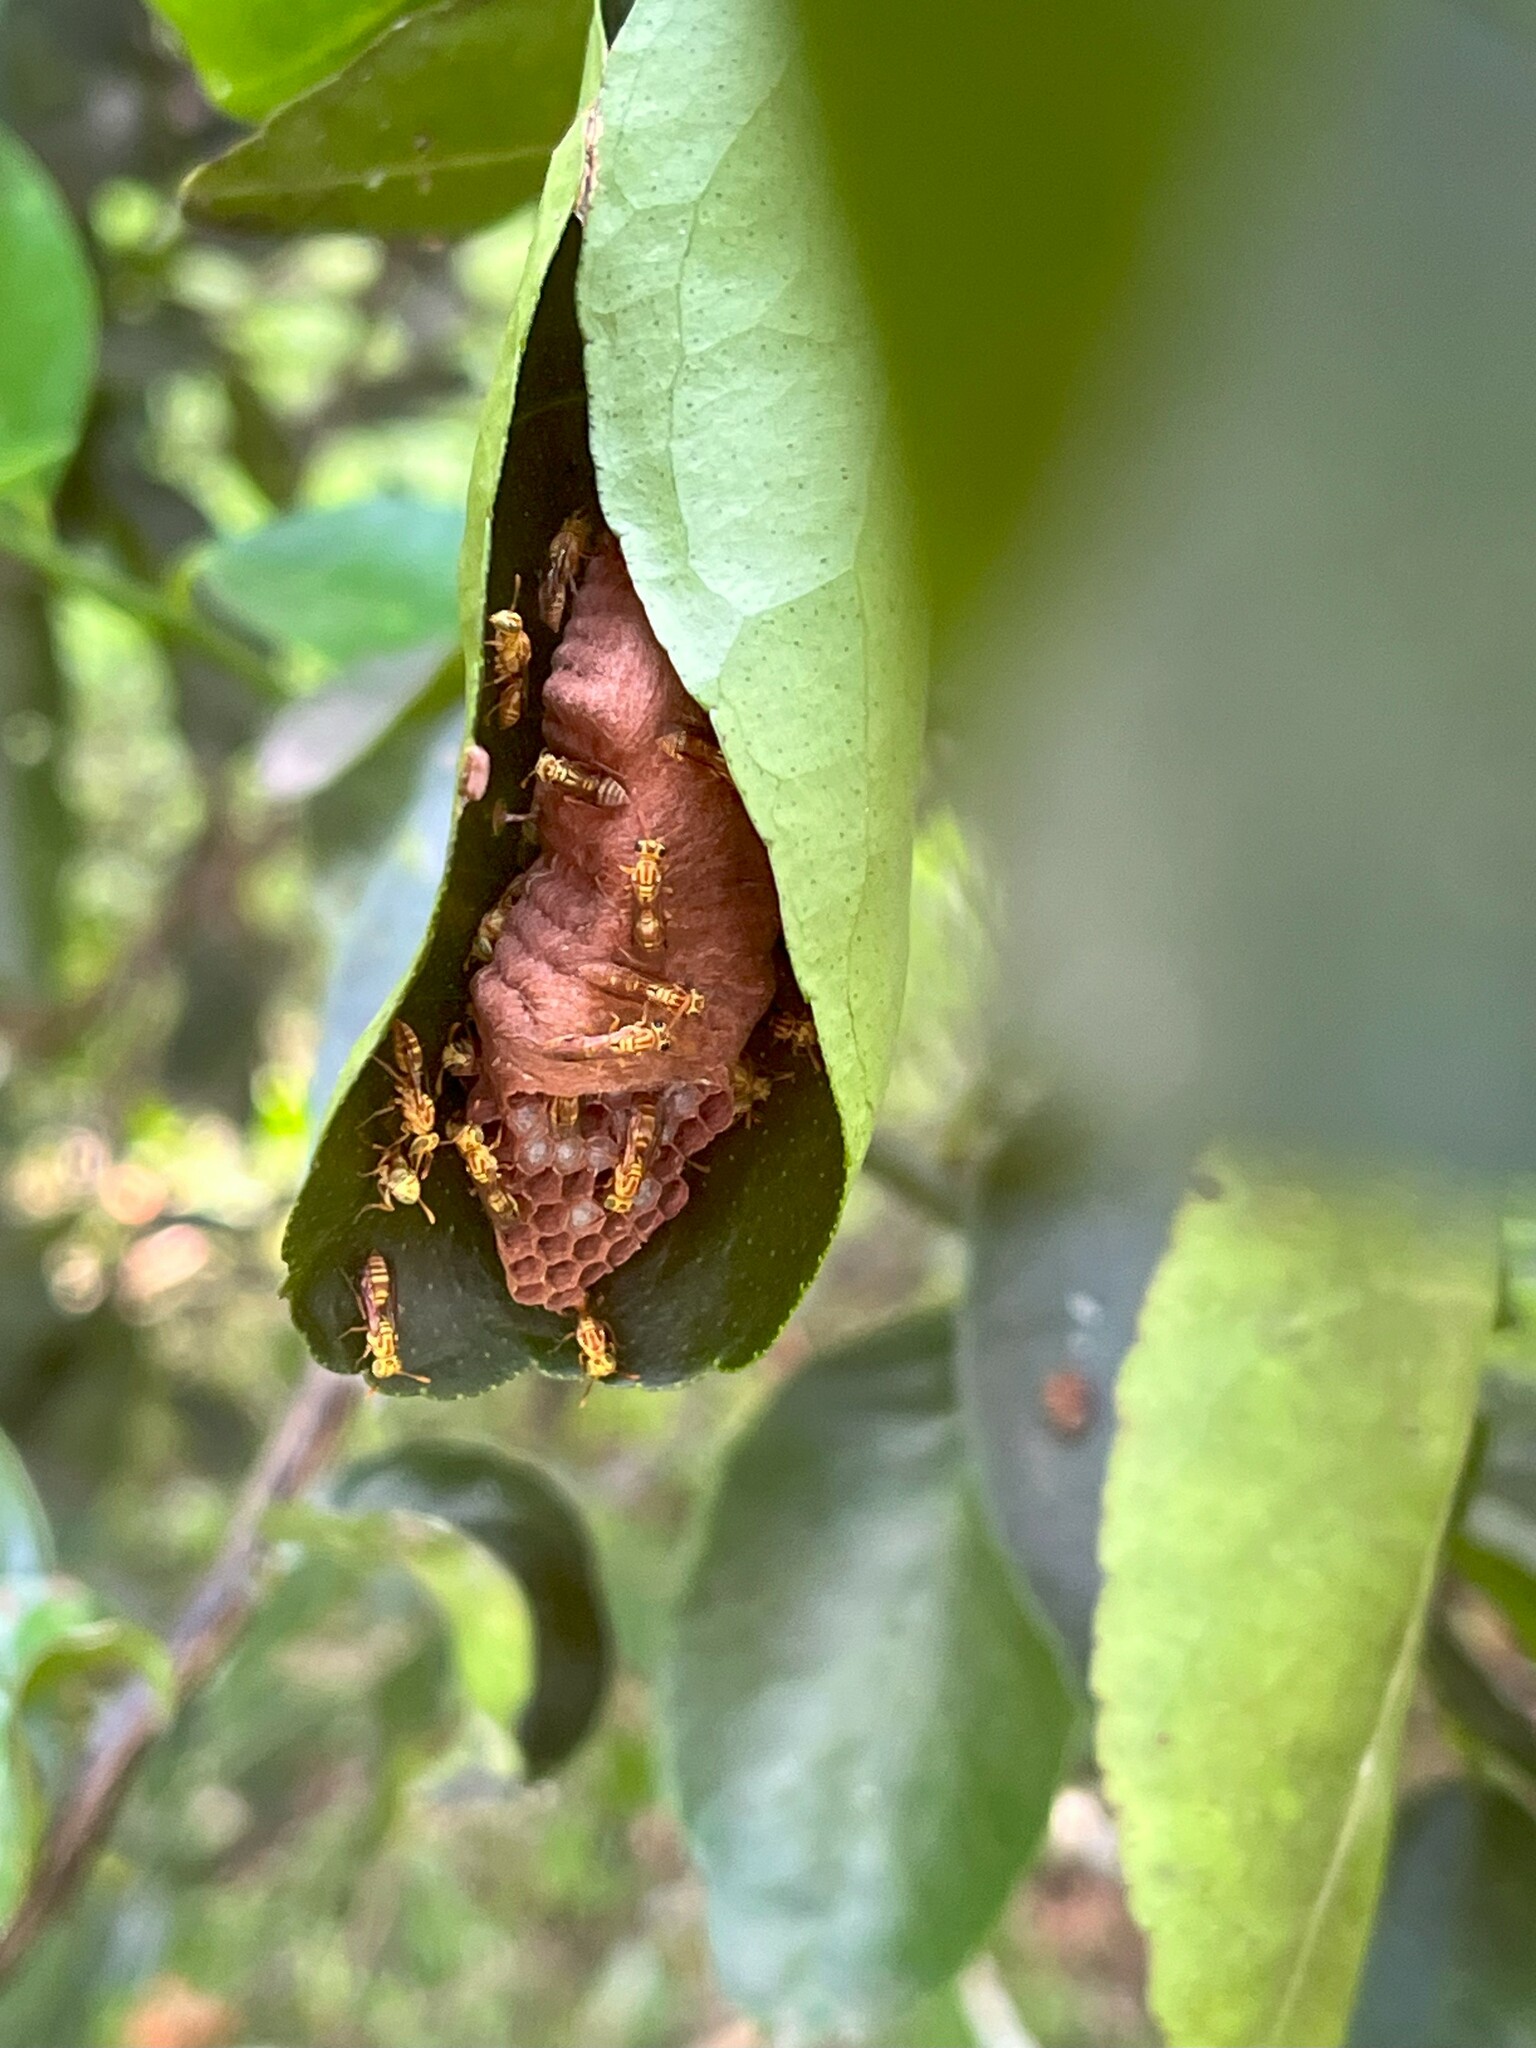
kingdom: Animalia
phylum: Arthropoda
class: Insecta
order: Hymenoptera
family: Vespidae
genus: Protopolybia
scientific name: Protopolybia potiguara
